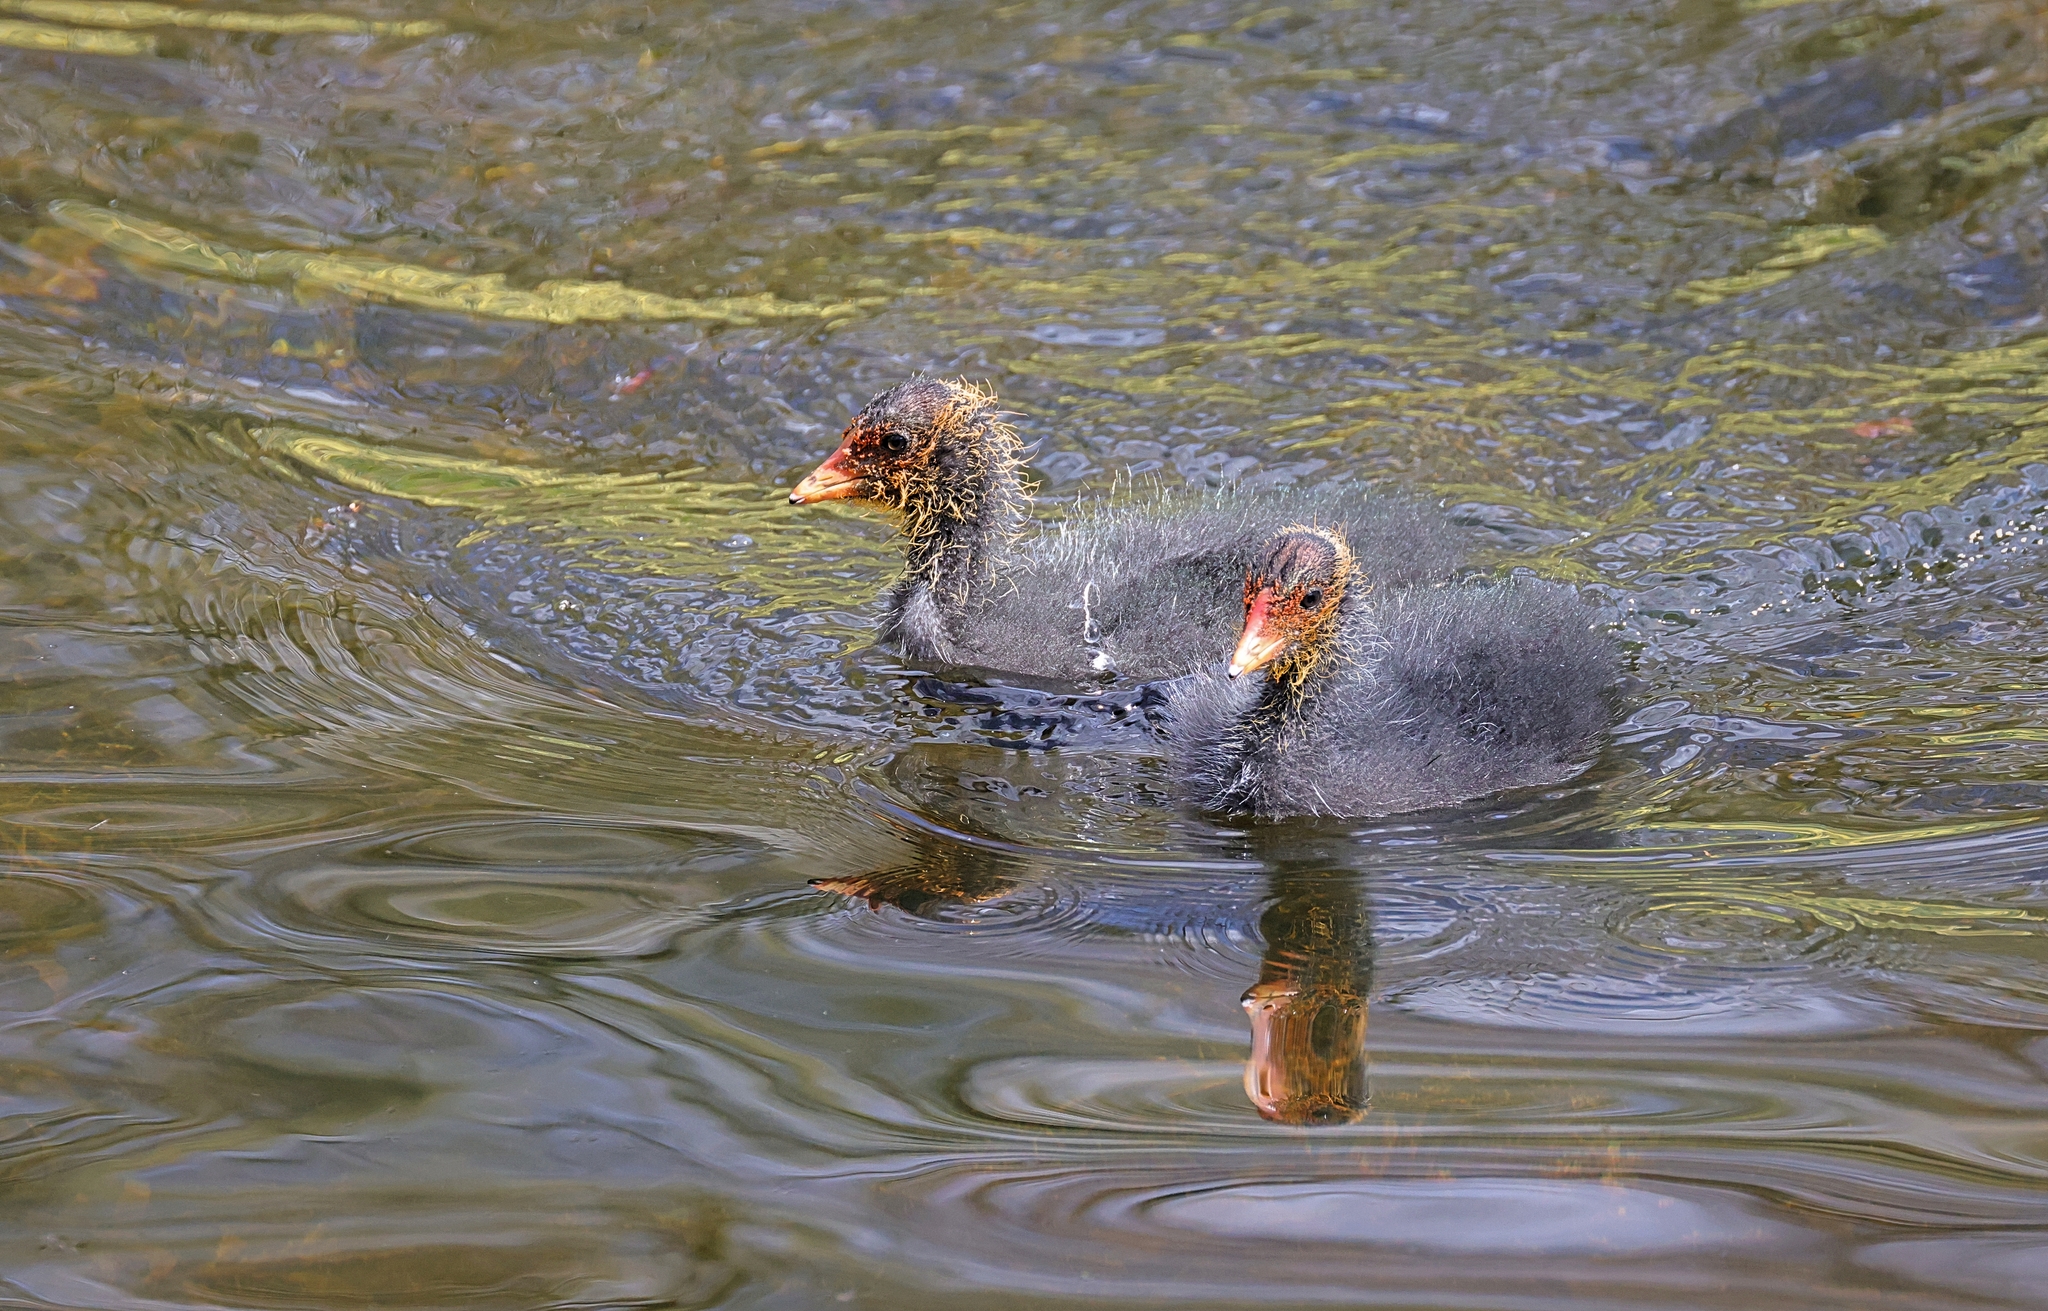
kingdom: Animalia
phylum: Chordata
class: Aves
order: Gruiformes
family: Rallidae
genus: Fulica
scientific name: Fulica atra
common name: Eurasian coot
